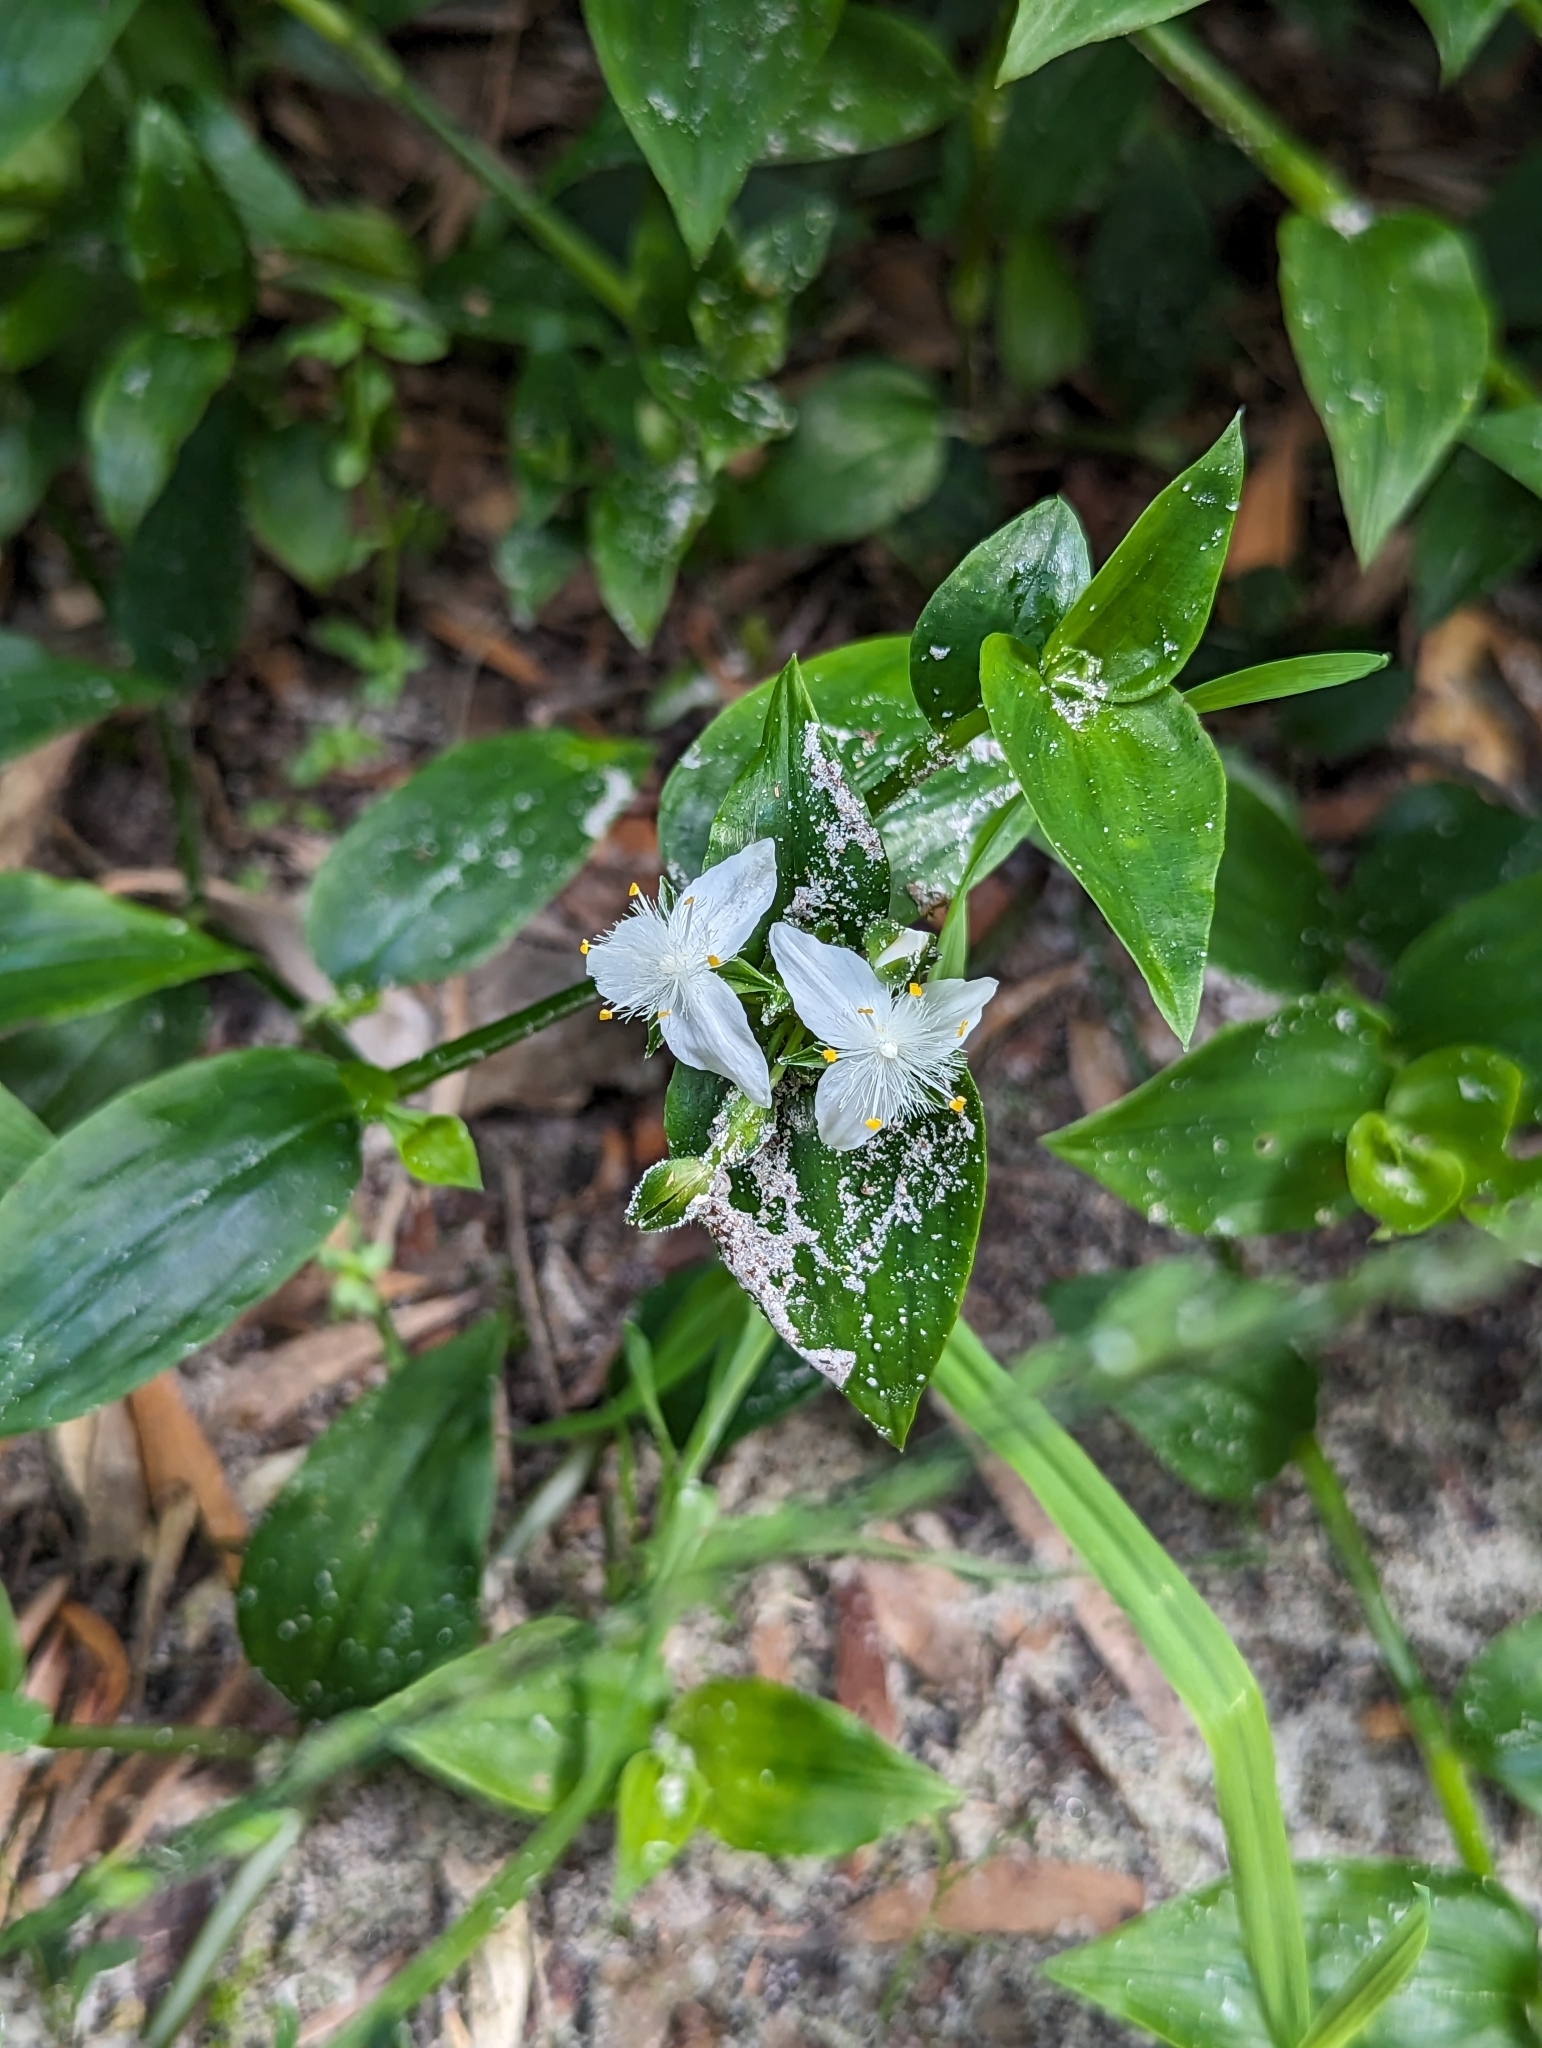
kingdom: Plantae
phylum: Tracheophyta
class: Liliopsida
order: Commelinales
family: Commelinaceae
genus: Tradescantia
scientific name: Tradescantia fluminensis
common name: Wandering-jew
